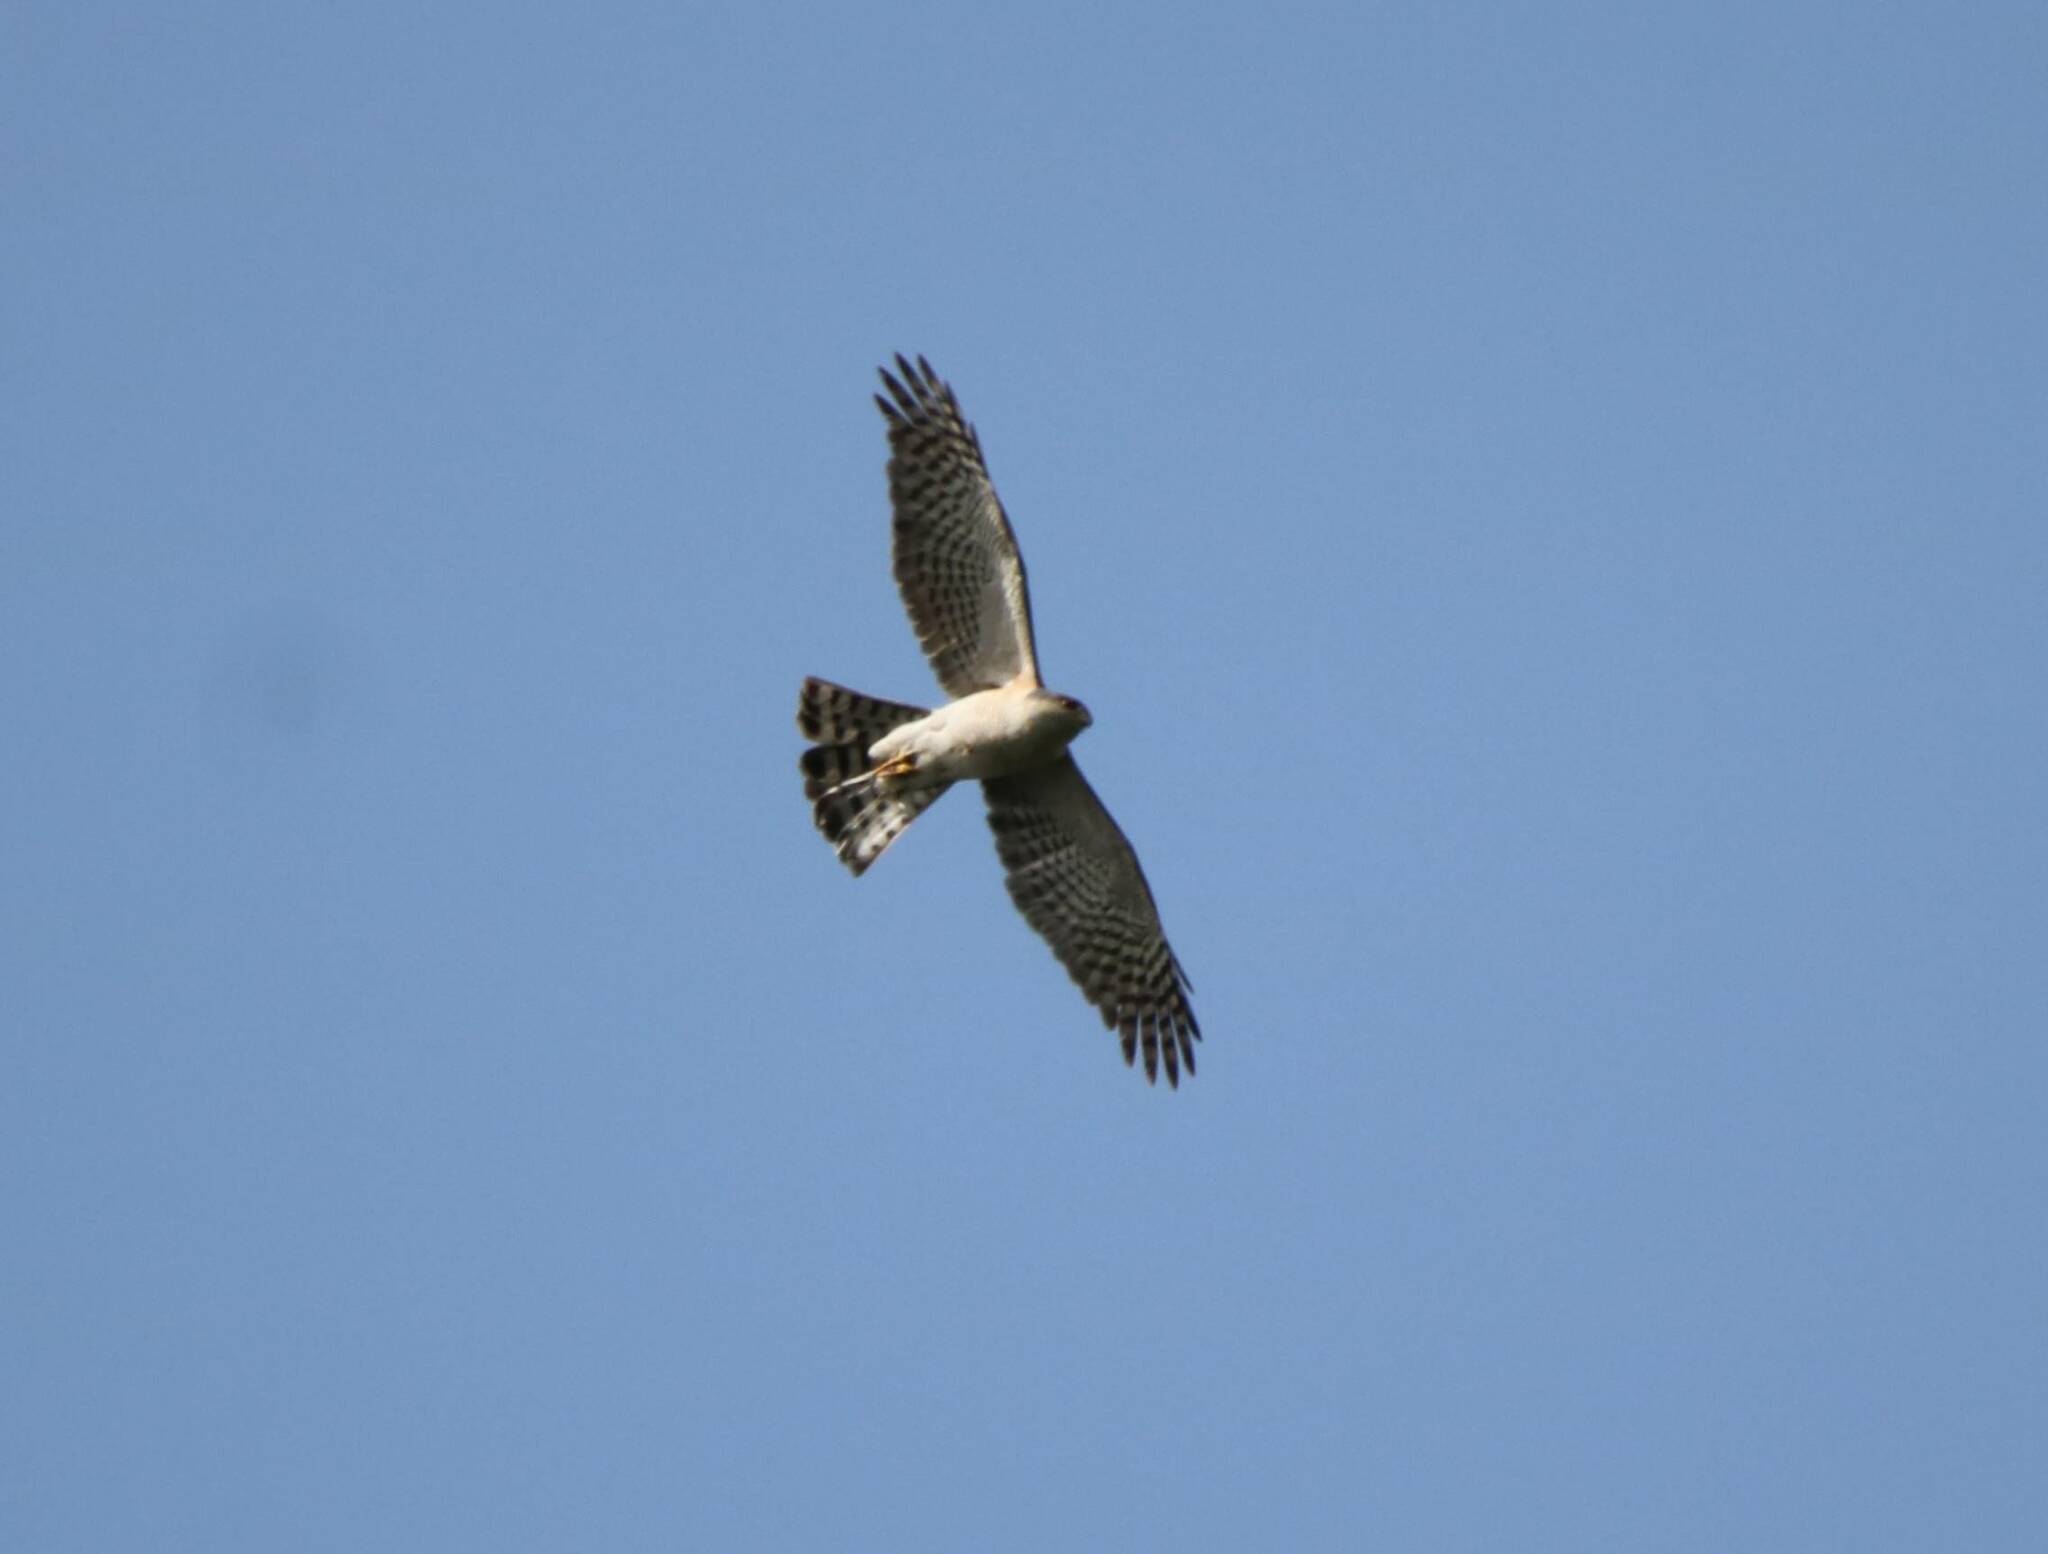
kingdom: Animalia
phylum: Chordata
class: Aves
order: Accipitriformes
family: Accipitridae
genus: Accipiter
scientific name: Accipiter nisus
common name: Eurasian sparrowhawk
